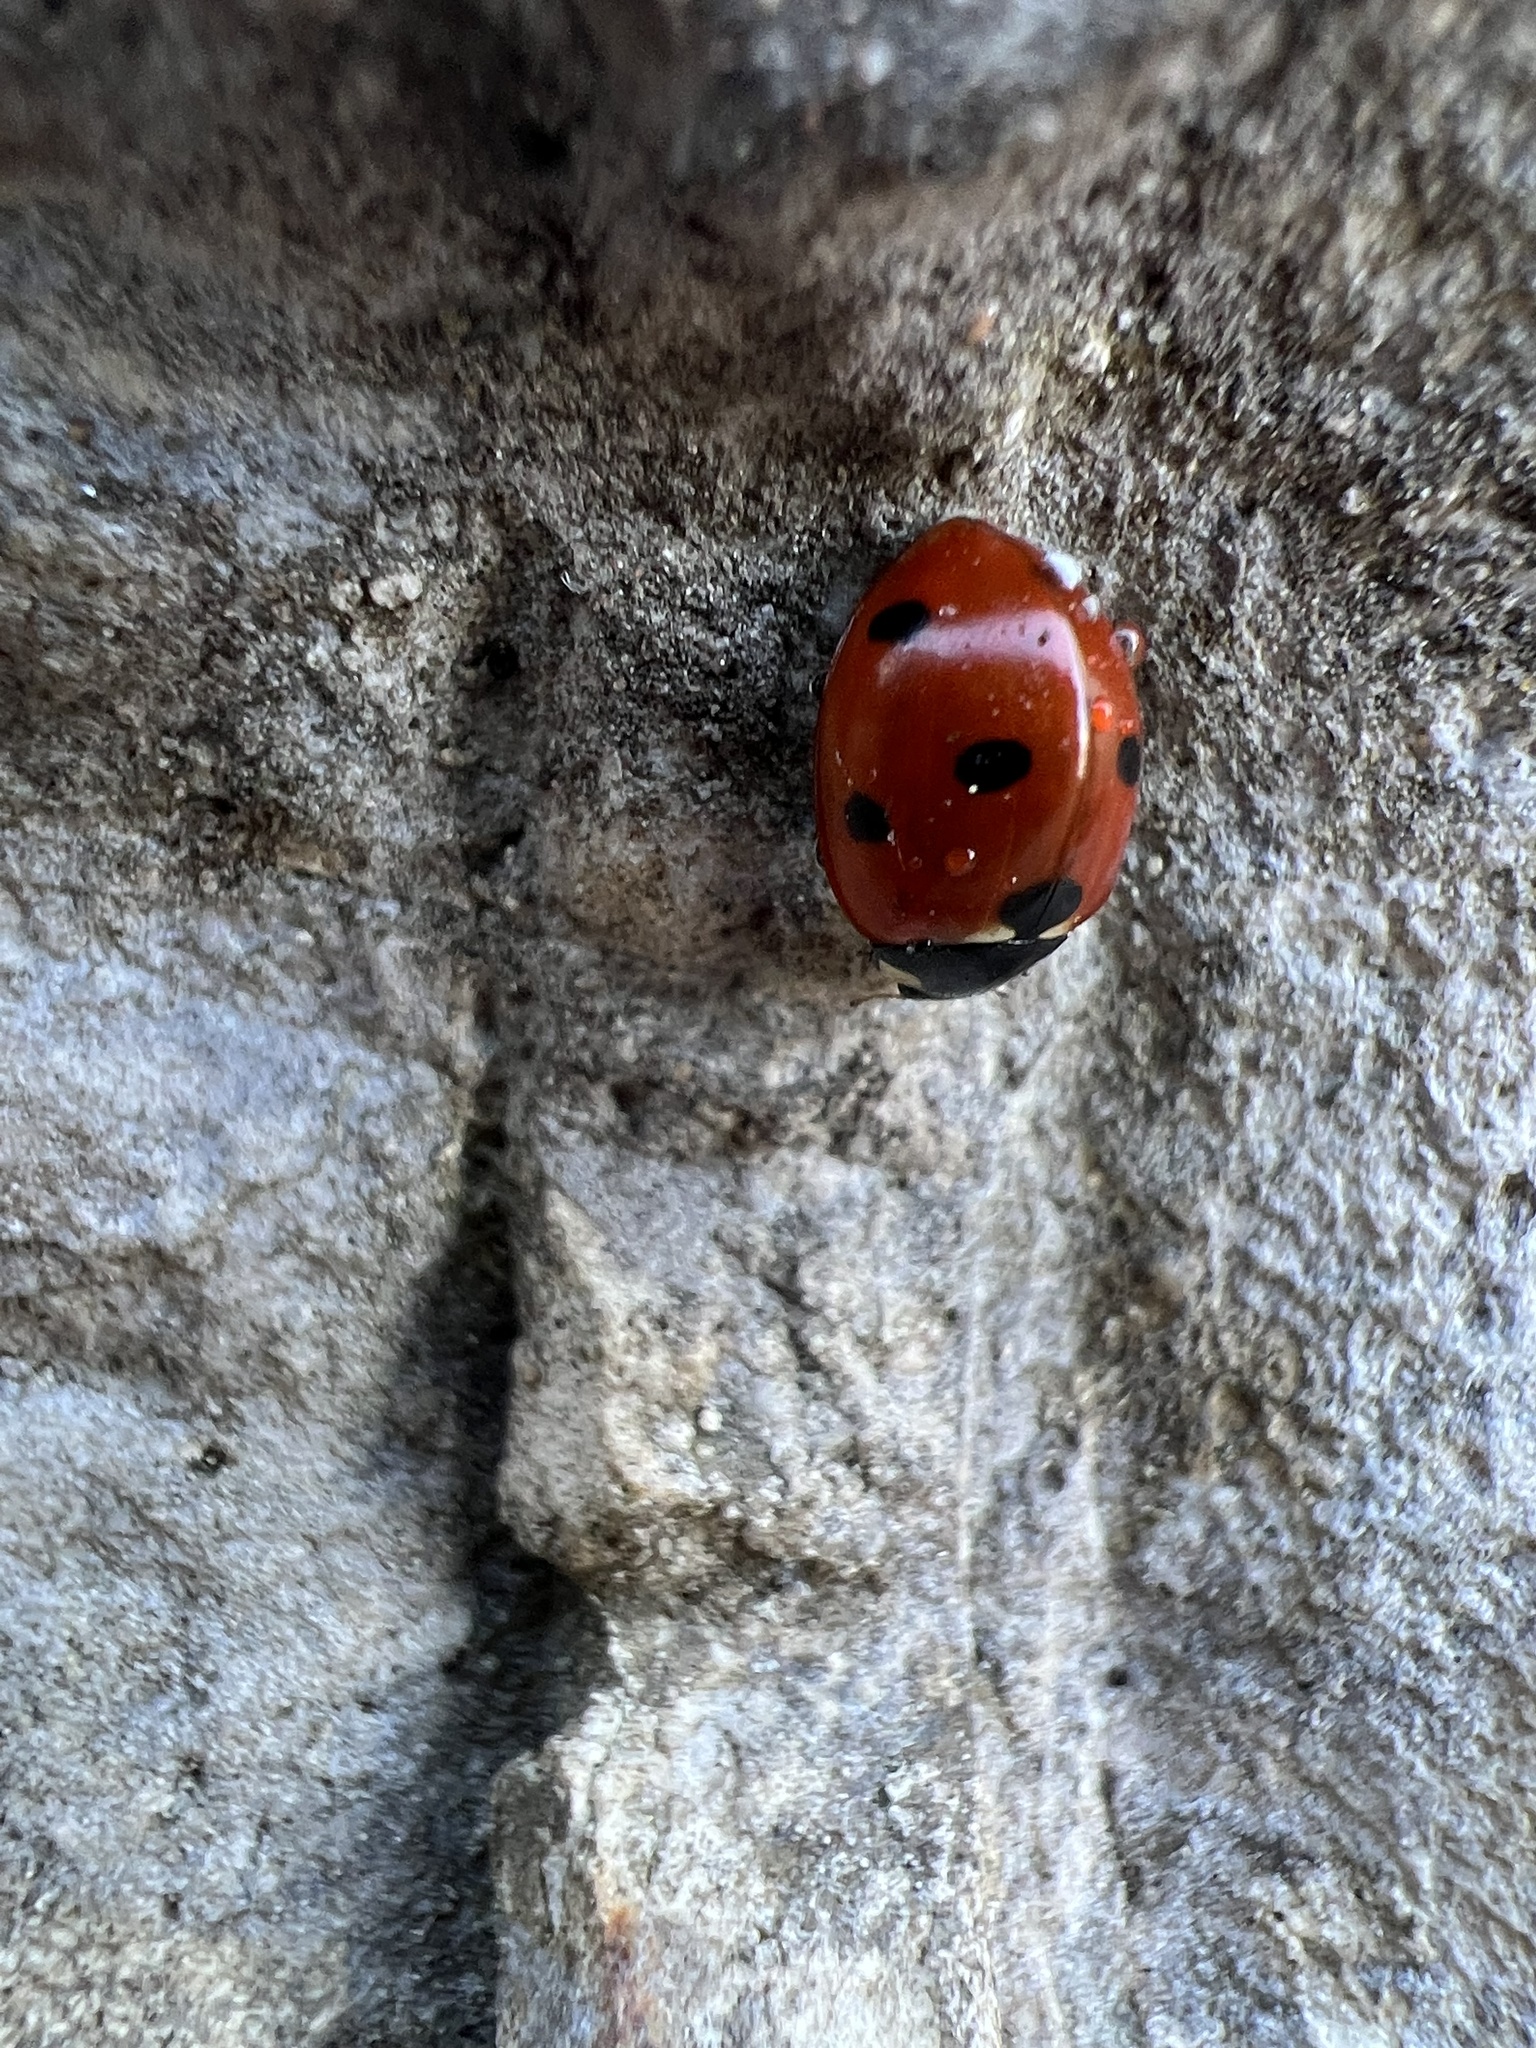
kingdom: Animalia
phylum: Arthropoda
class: Insecta
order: Coleoptera
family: Coccinellidae
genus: Coccinella
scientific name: Coccinella septempunctata
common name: Sevenspotted lady beetle
